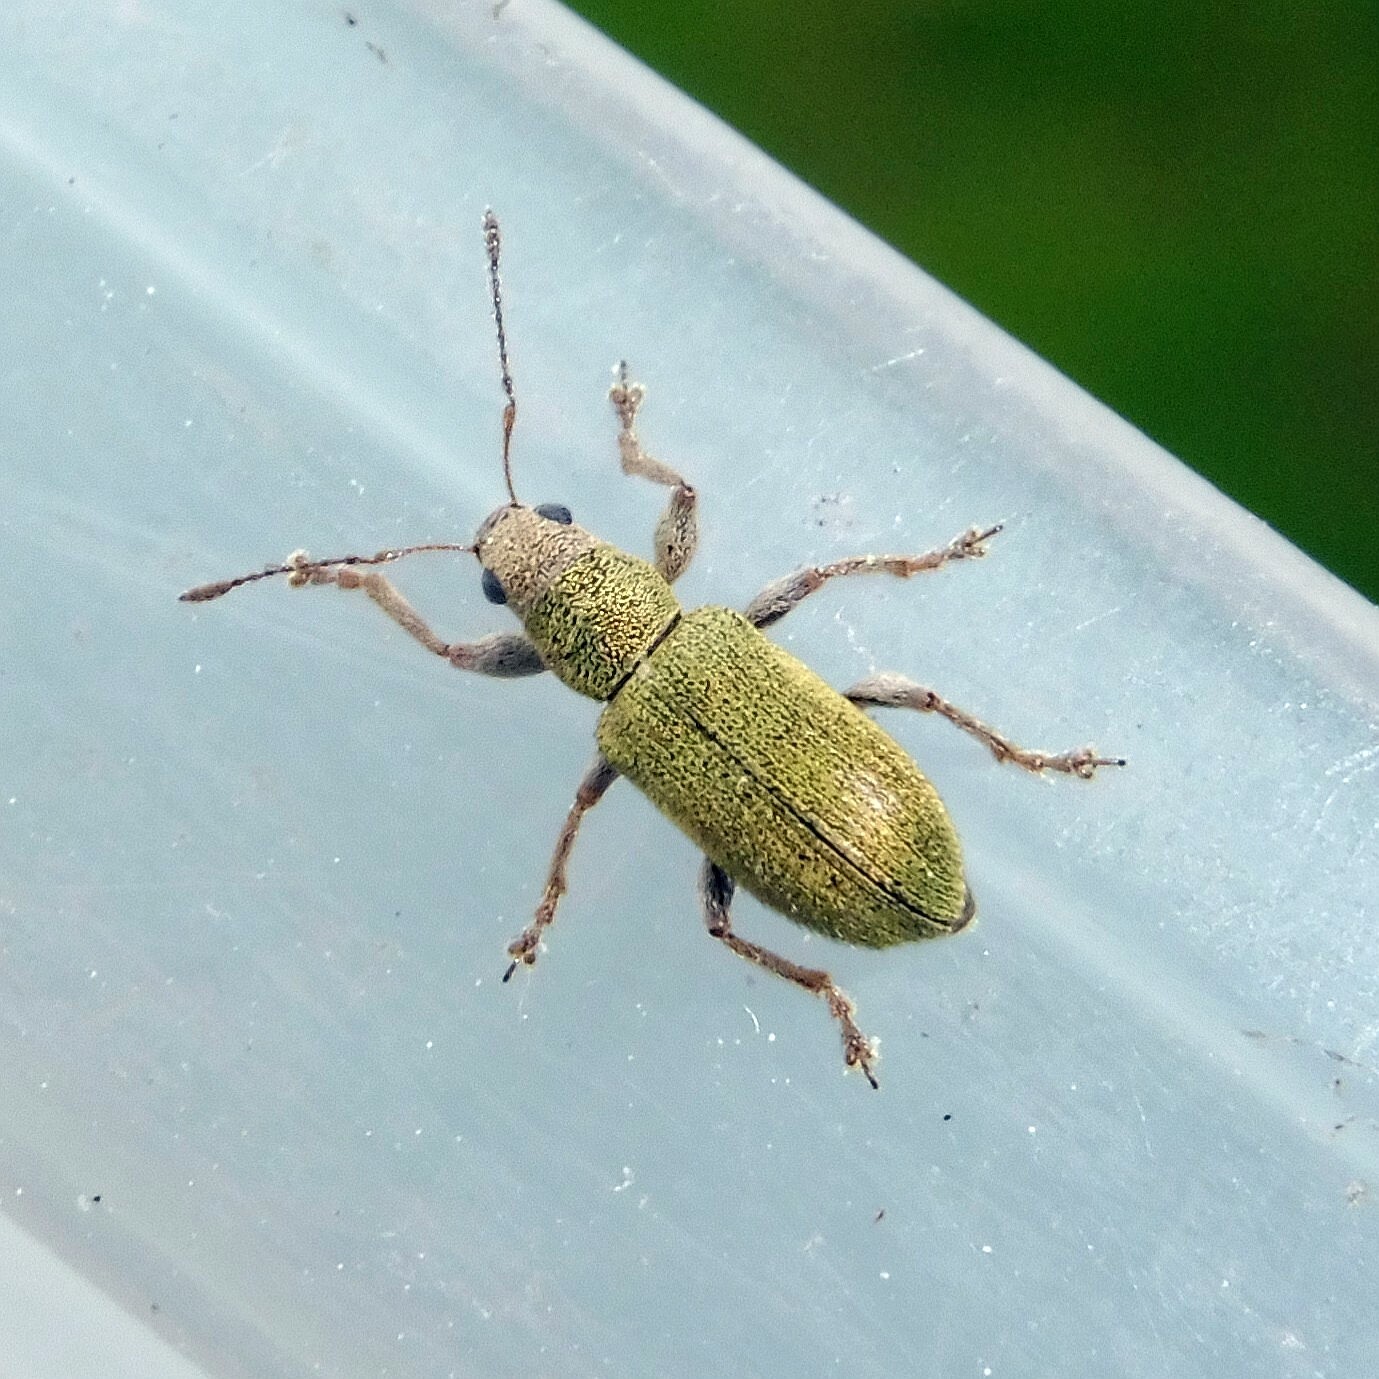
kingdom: Animalia
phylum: Arthropoda
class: Insecta
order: Coleoptera
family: Curculionidae
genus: Pachyrhinus
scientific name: Pachyrhinus lethierryi
